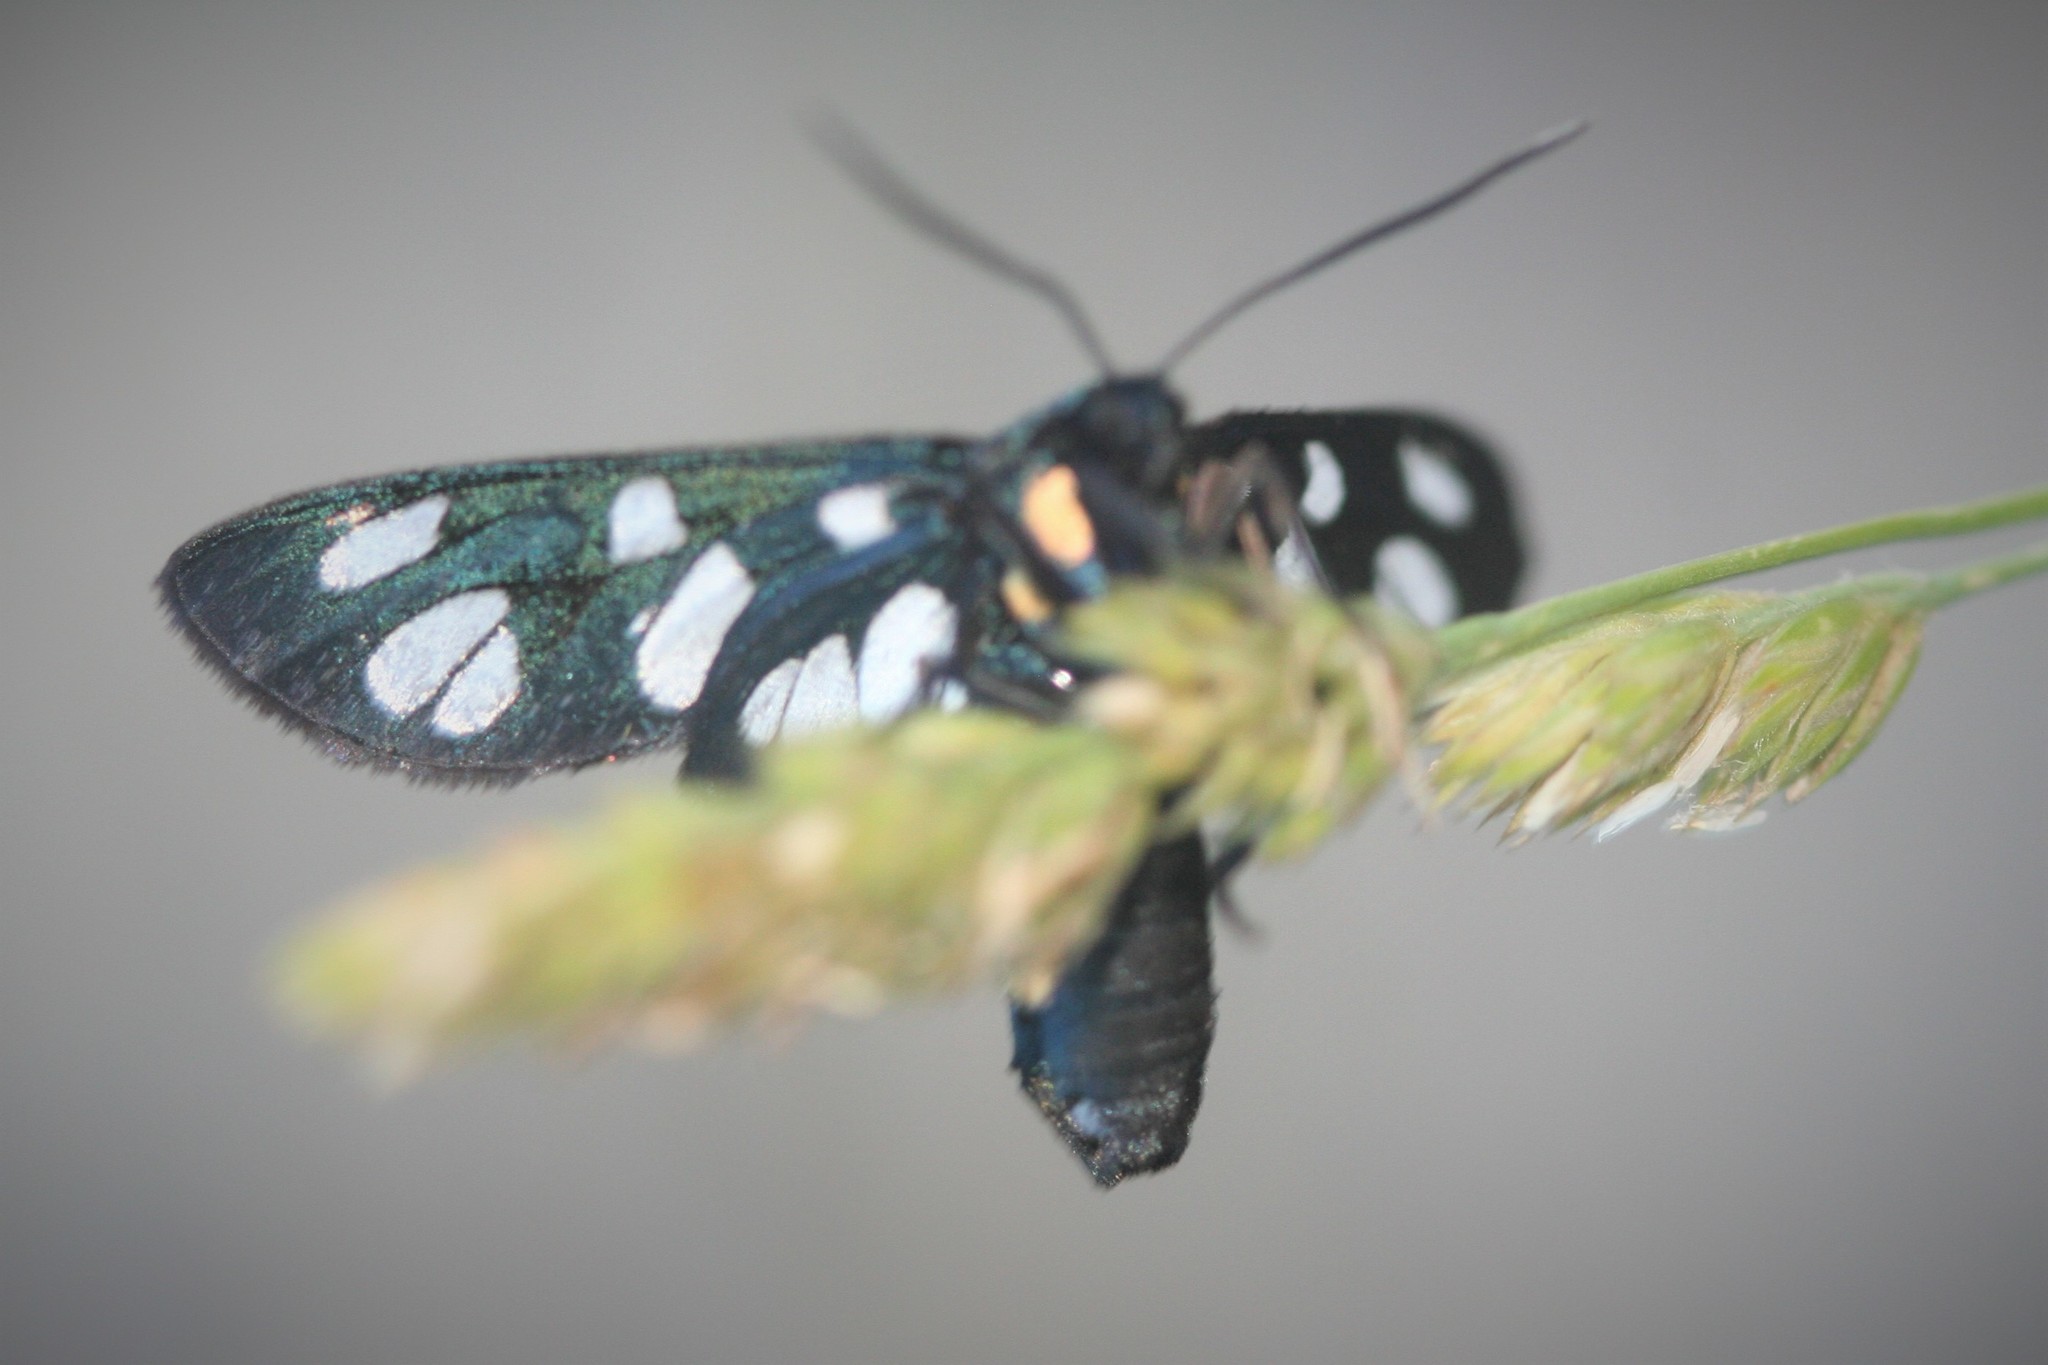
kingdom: Animalia
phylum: Arthropoda
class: Insecta
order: Lepidoptera
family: Erebidae
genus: Amata
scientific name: Amata phegea
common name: Nine-spotted
